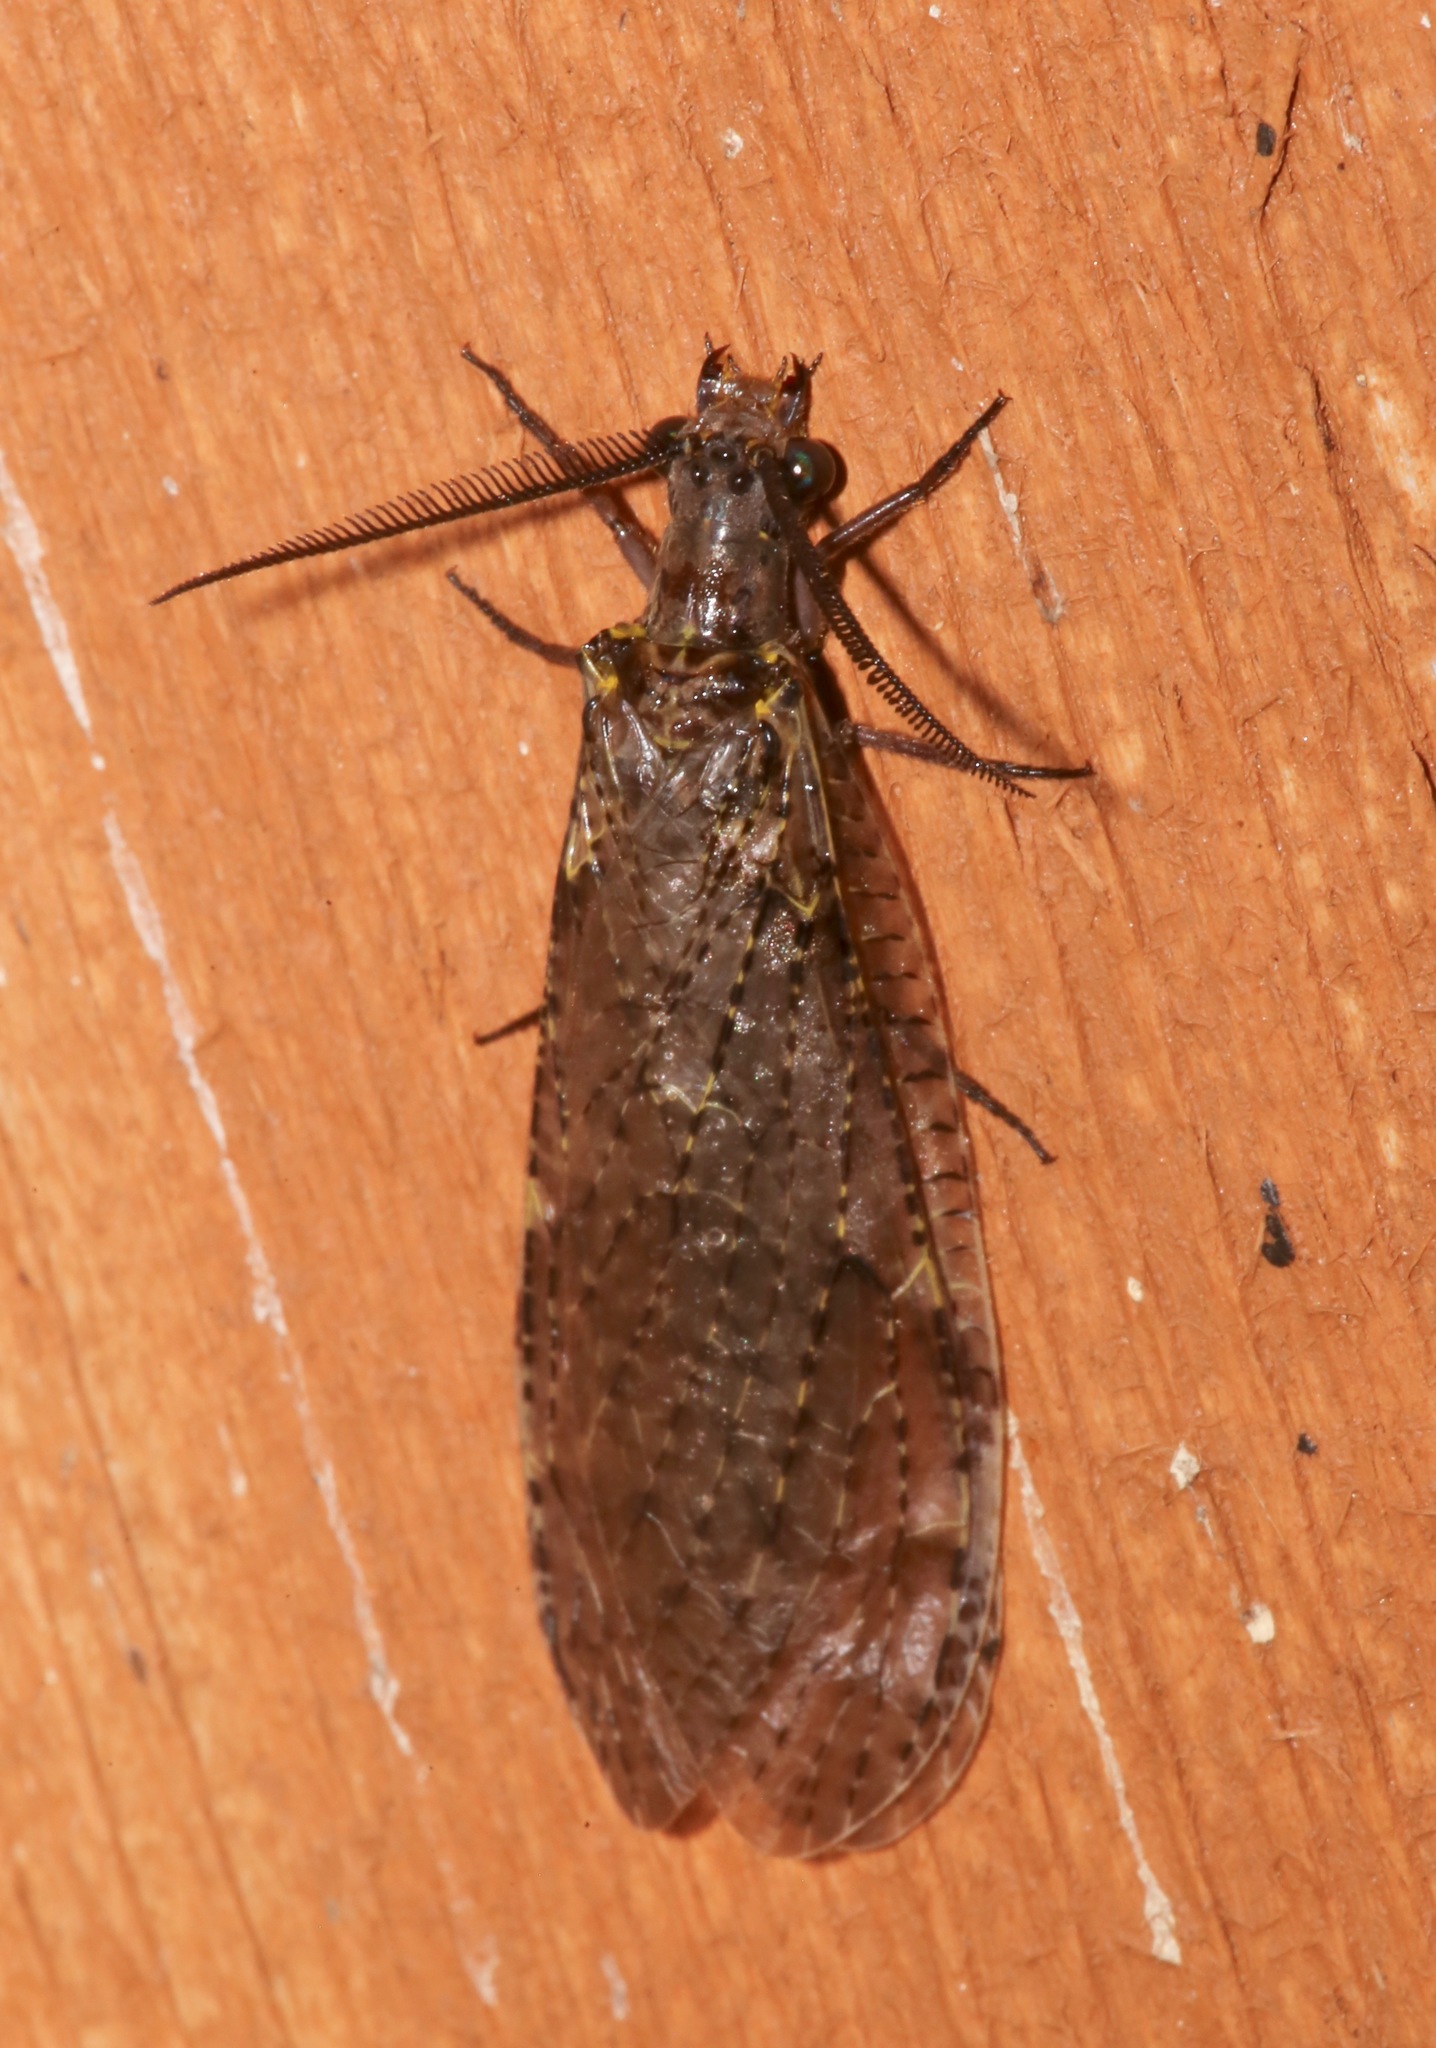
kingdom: Animalia
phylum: Arthropoda
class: Insecta
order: Megaloptera
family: Corydalidae
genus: Chauliodes
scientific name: Chauliodes rastricornis
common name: Spring fishfly
